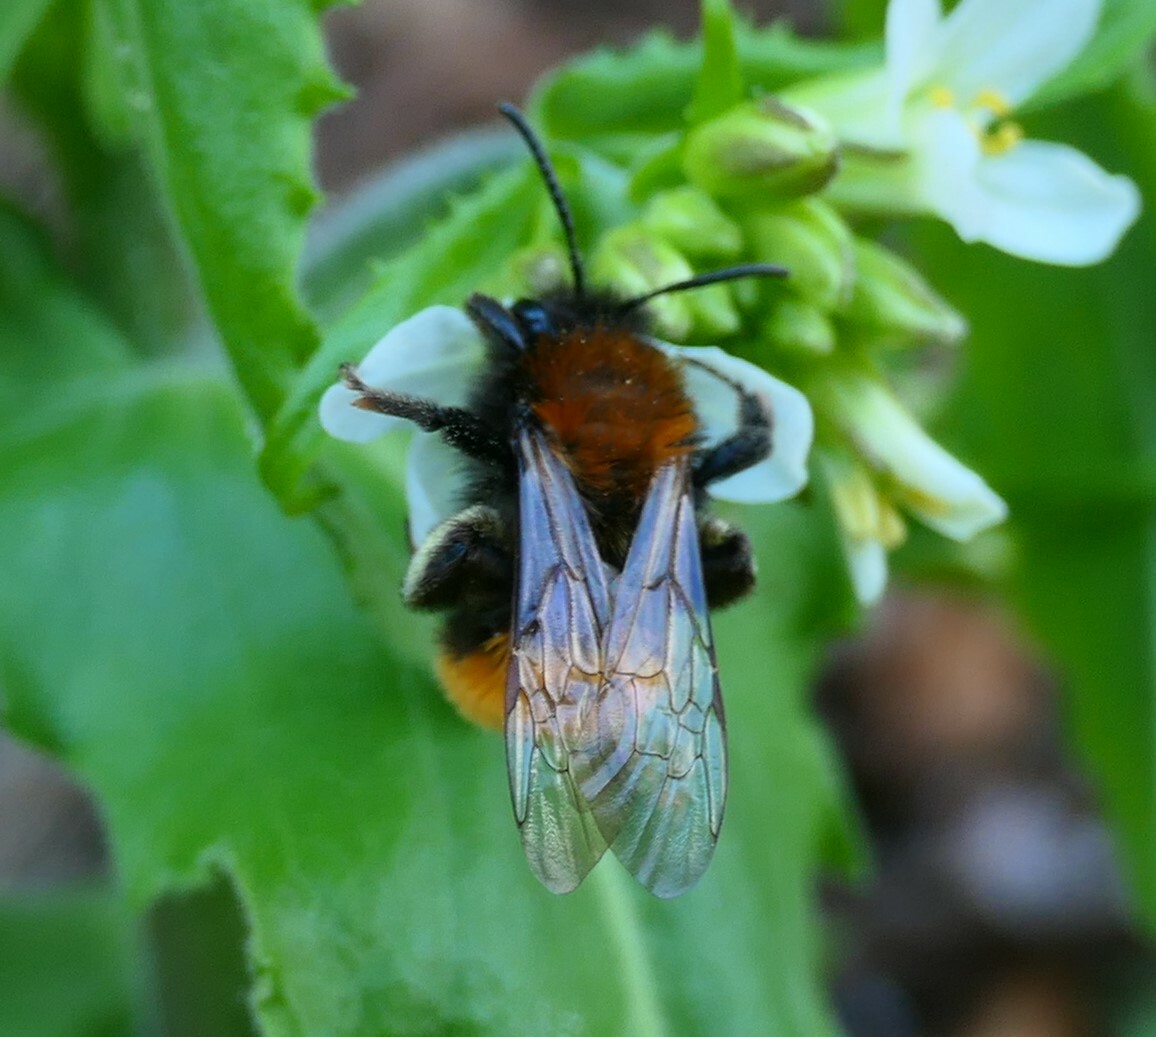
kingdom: Animalia
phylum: Arthropoda
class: Insecta
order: Hymenoptera
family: Andrenidae
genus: Andrena
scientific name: Andrena fulva
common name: Tawny mining bee
